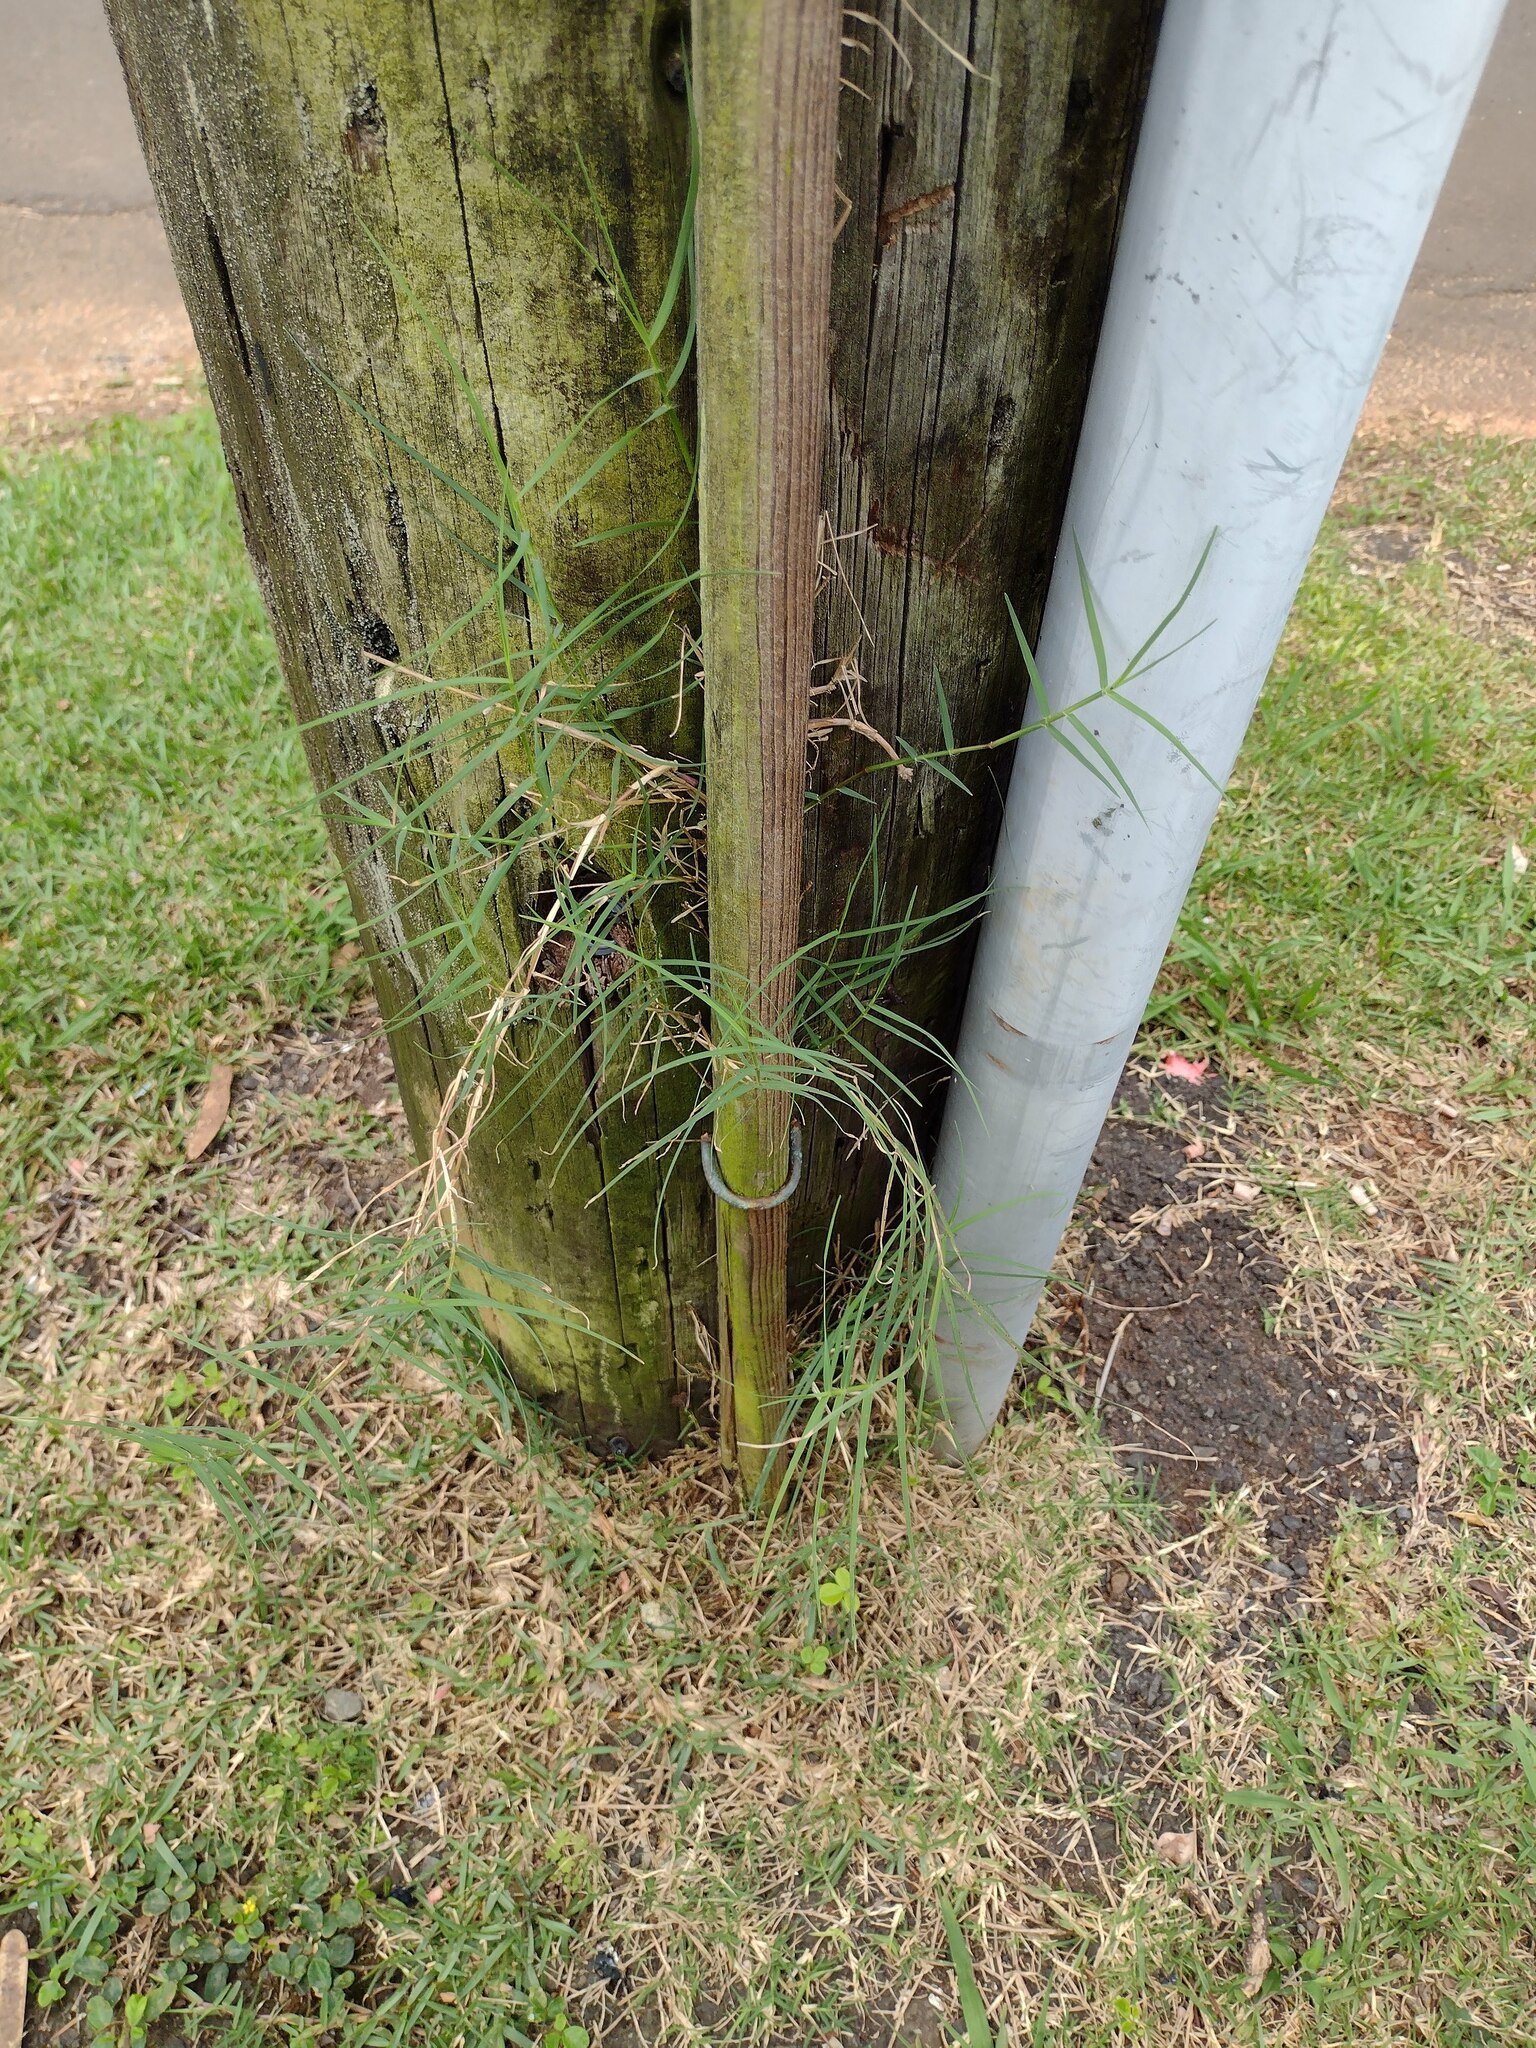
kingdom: Plantae
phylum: Tracheophyta
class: Liliopsida
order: Poales
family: Poaceae
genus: Cynodon
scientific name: Cynodon dactylon
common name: Bermuda grass
